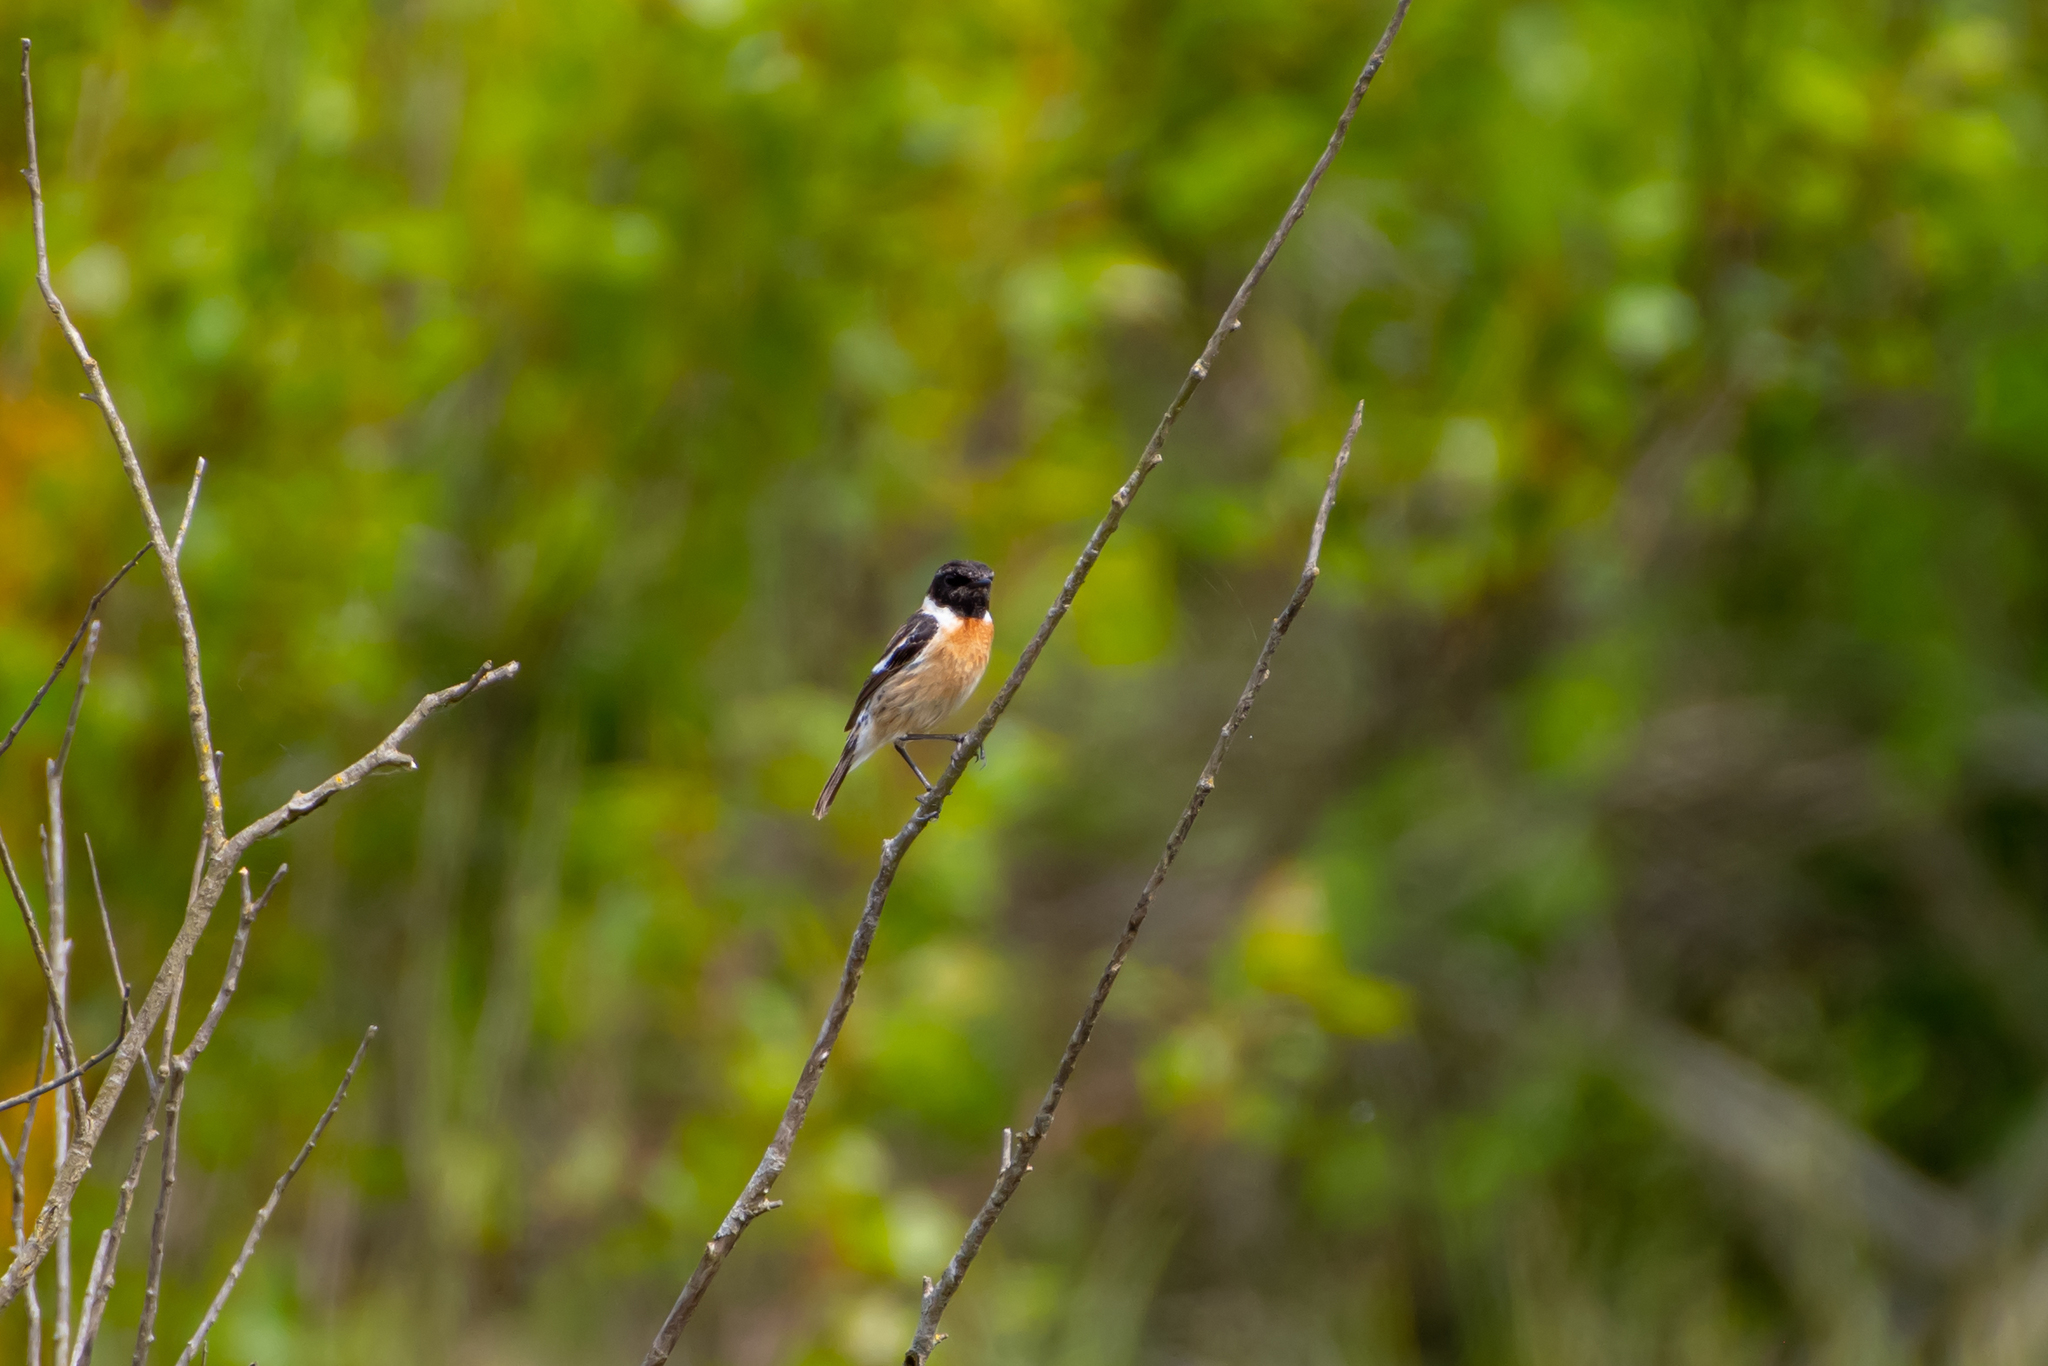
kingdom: Animalia
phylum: Chordata
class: Aves
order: Passeriformes
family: Muscicapidae
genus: Saxicola
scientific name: Saxicola rubicola
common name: European stonechat
